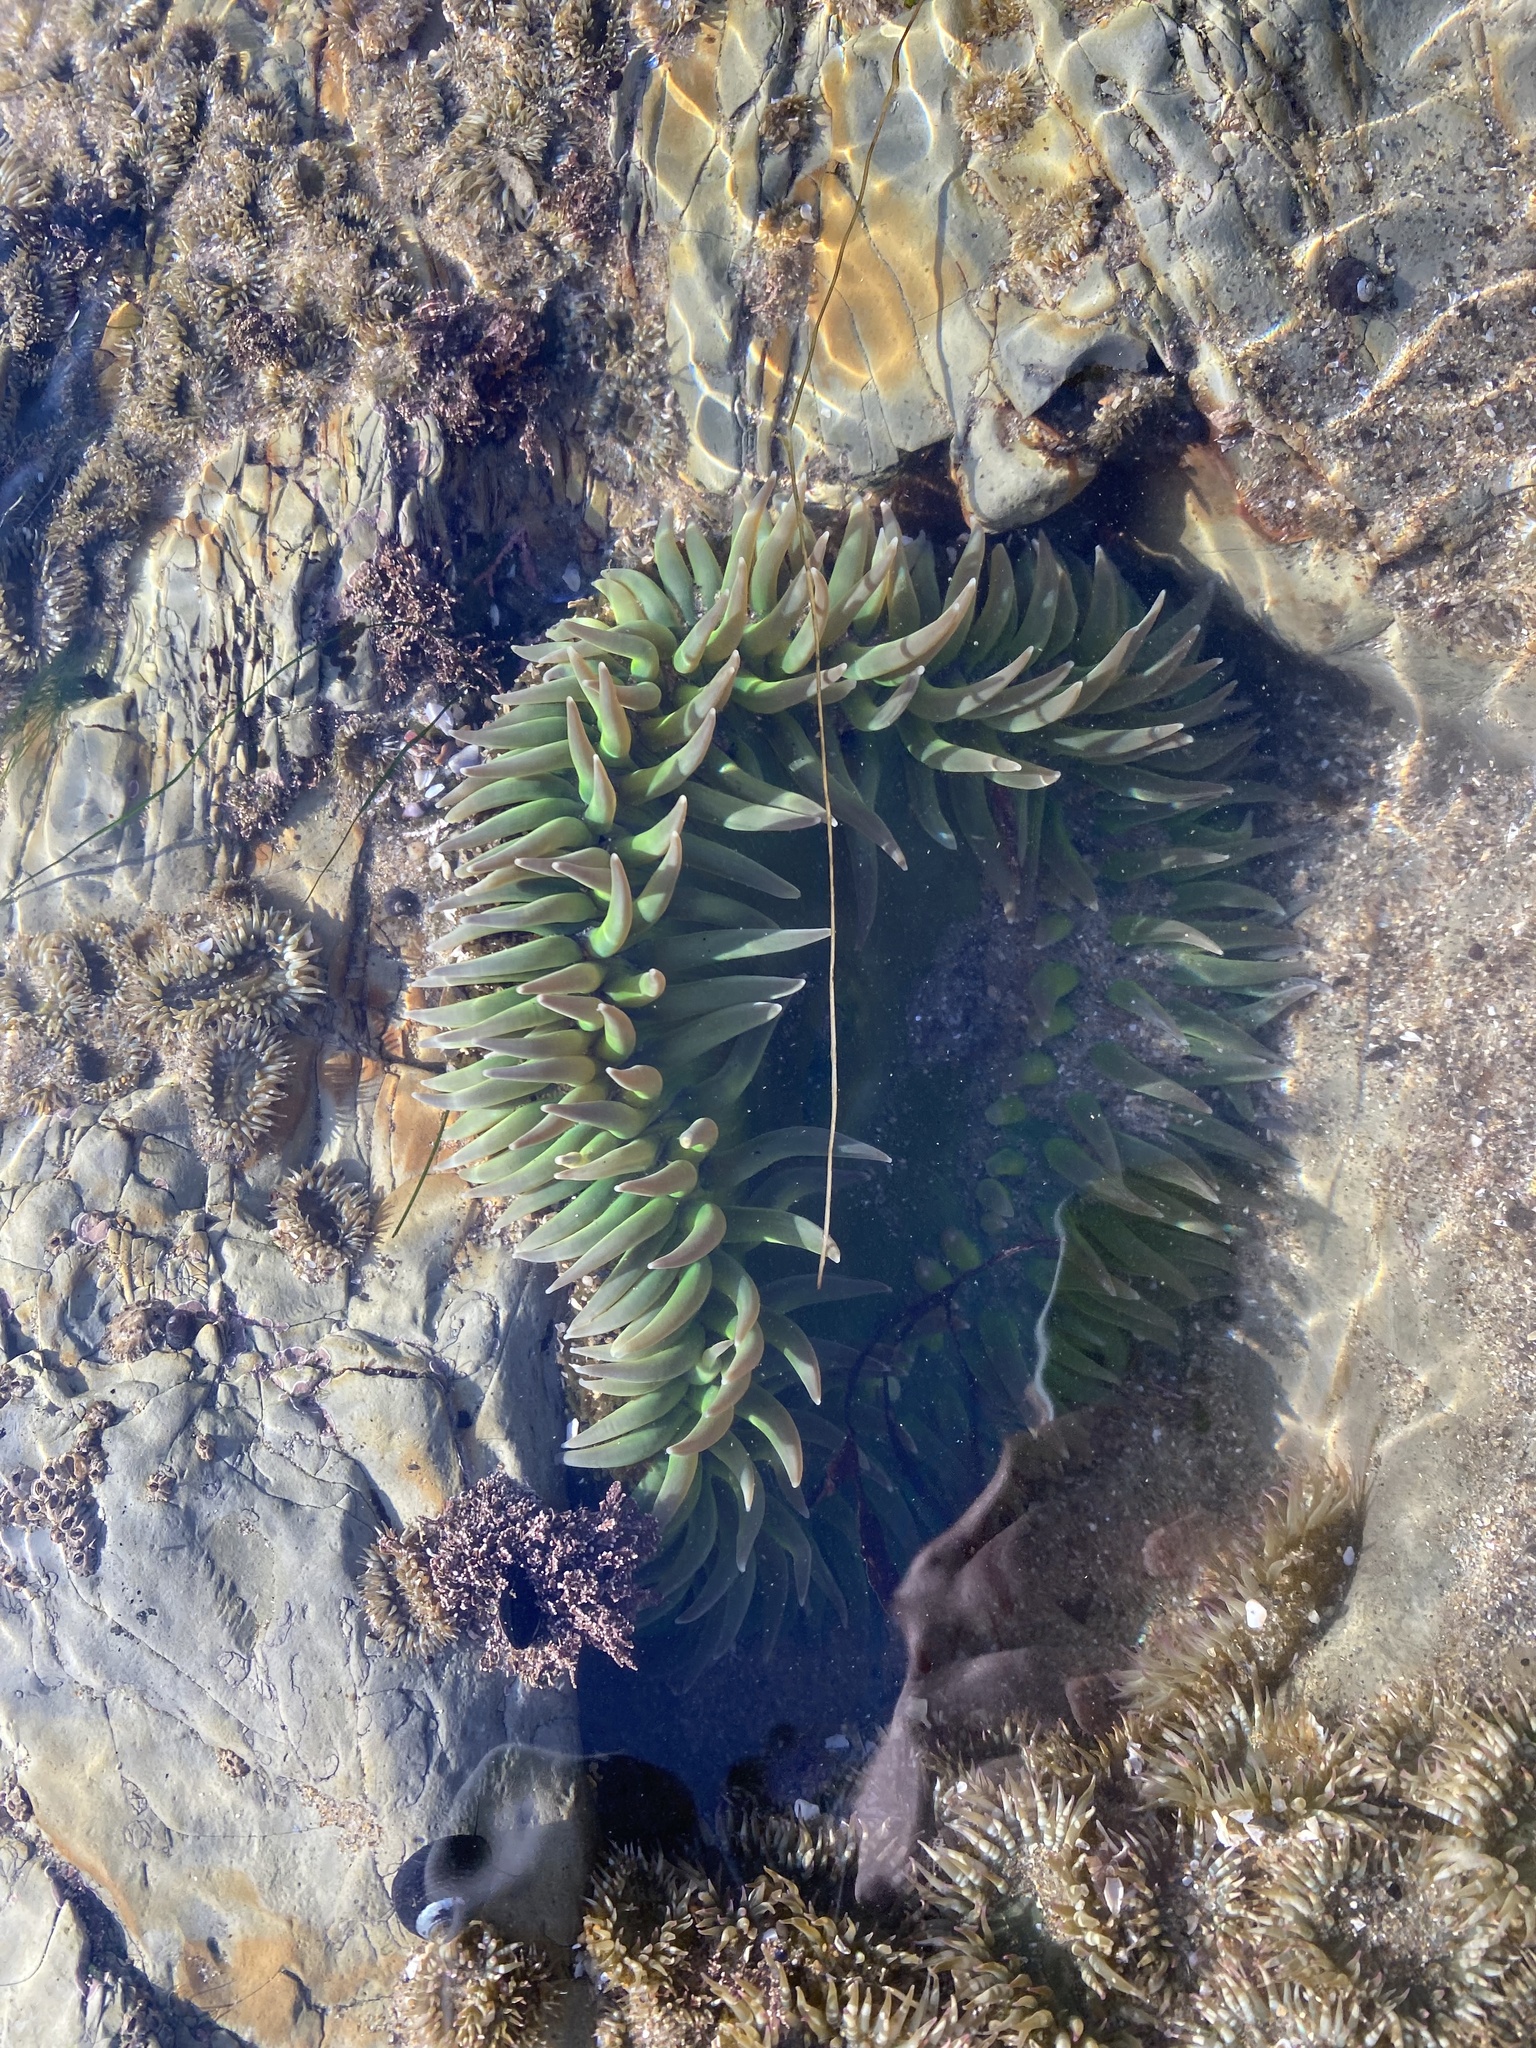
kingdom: Animalia
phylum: Cnidaria
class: Anthozoa
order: Actiniaria
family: Actiniidae
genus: Anthopleura
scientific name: Anthopleura xanthogrammica
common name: Giant green anemone
